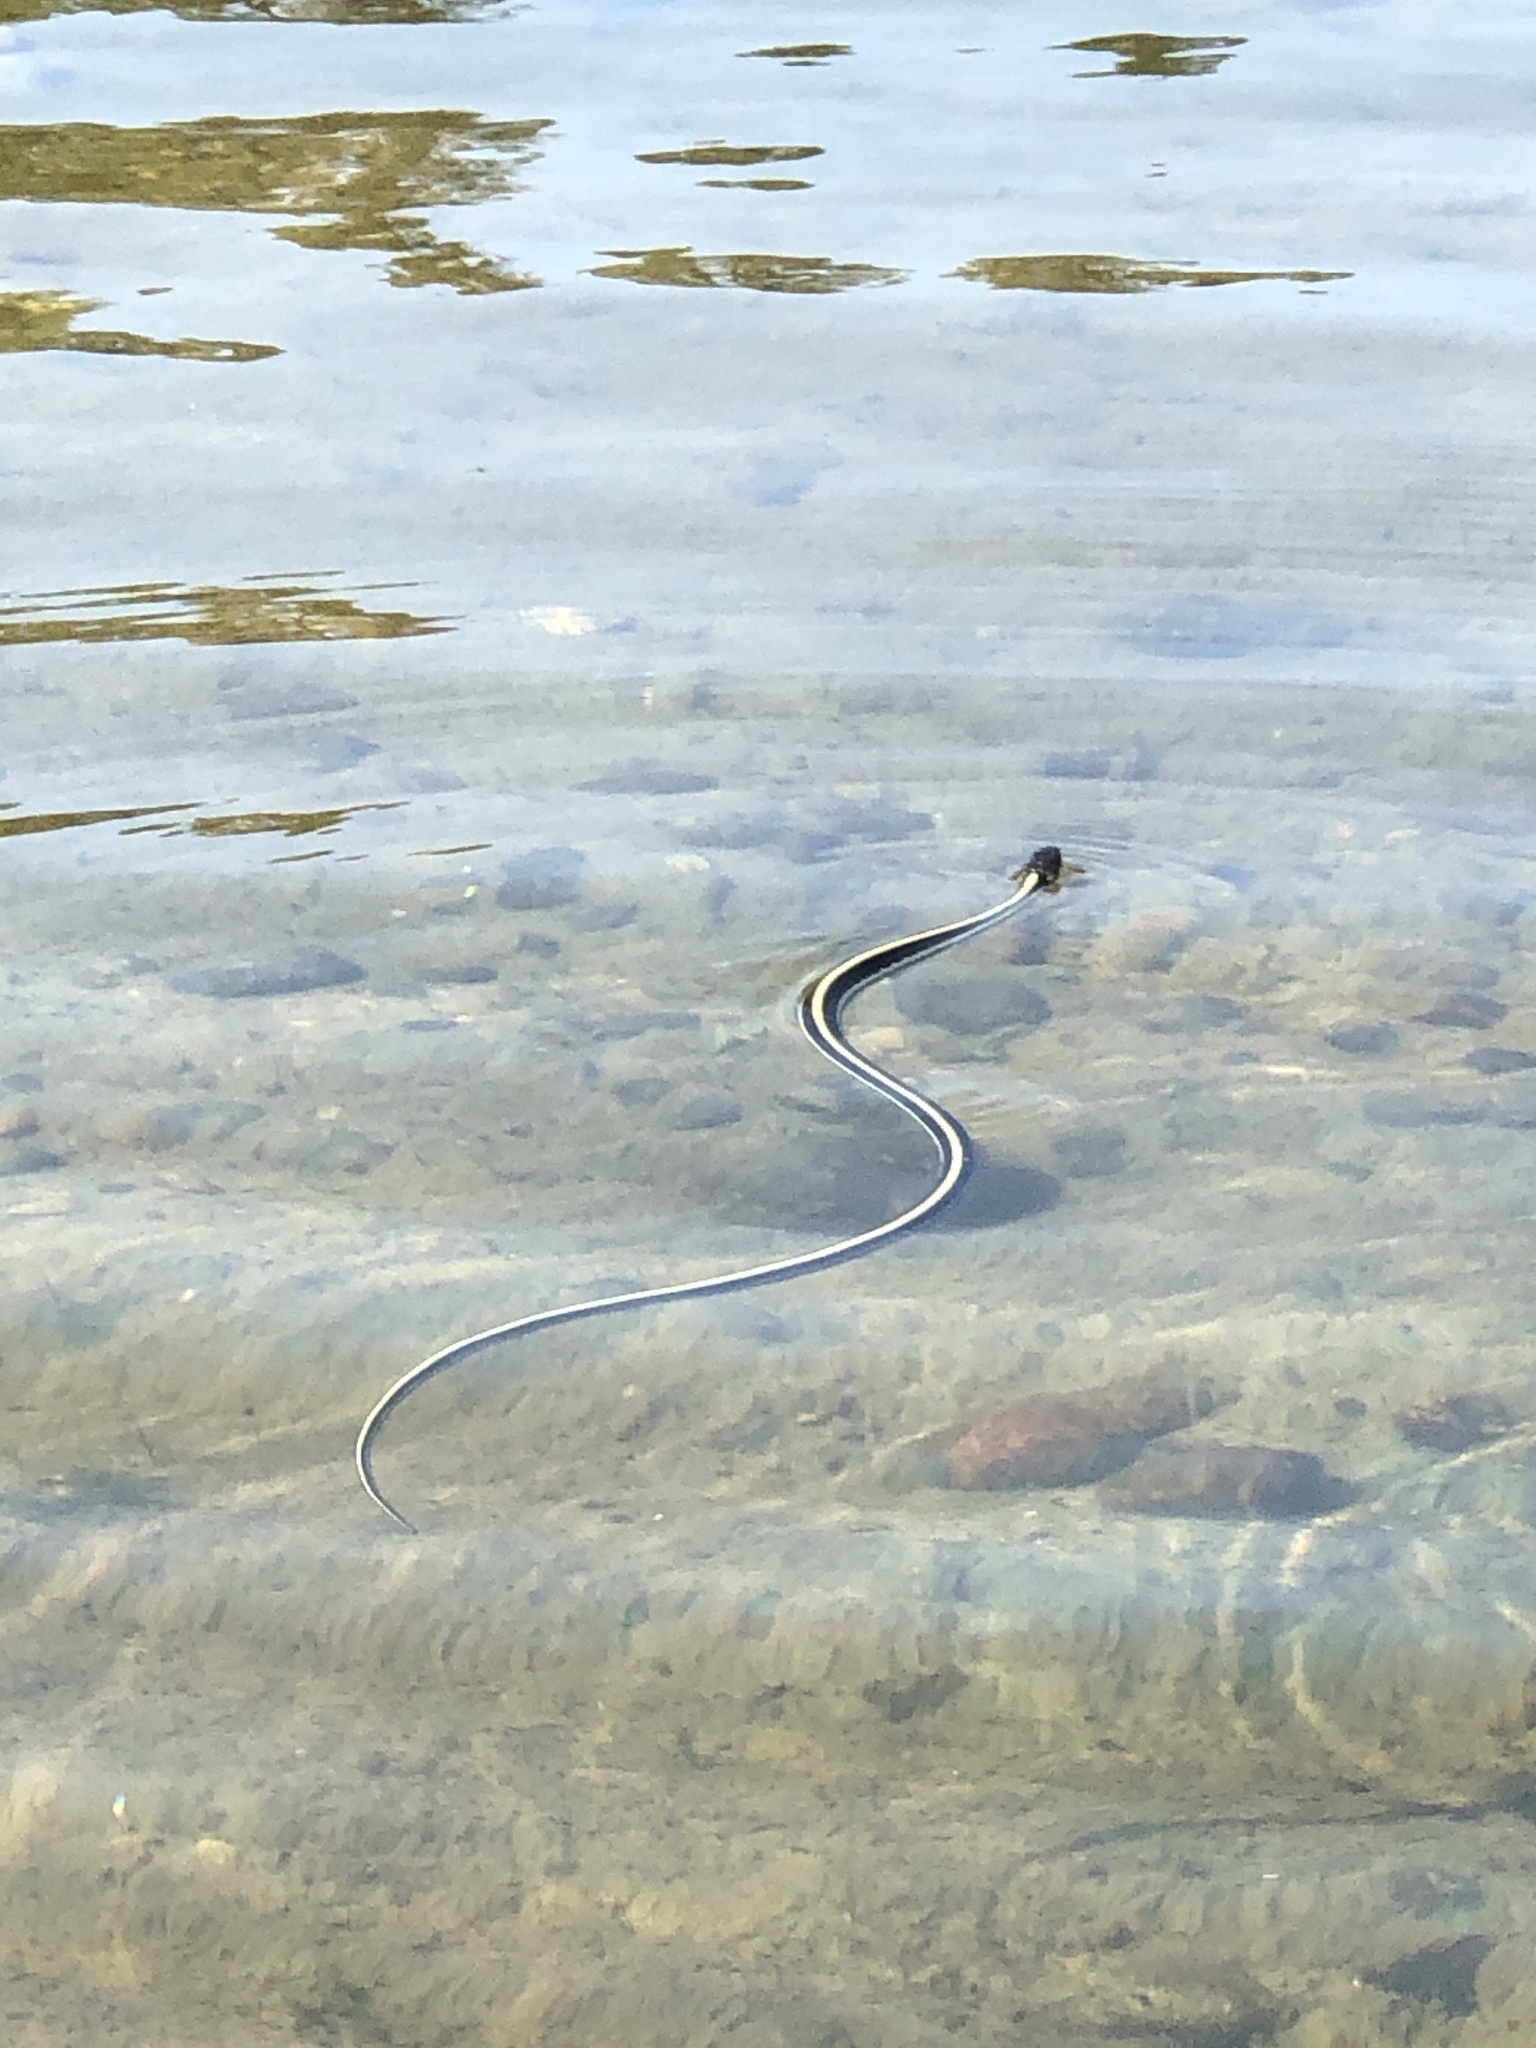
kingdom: Animalia
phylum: Chordata
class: Squamata
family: Colubridae
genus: Thamnophis
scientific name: Thamnophis sirtalis
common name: Common garter snake
